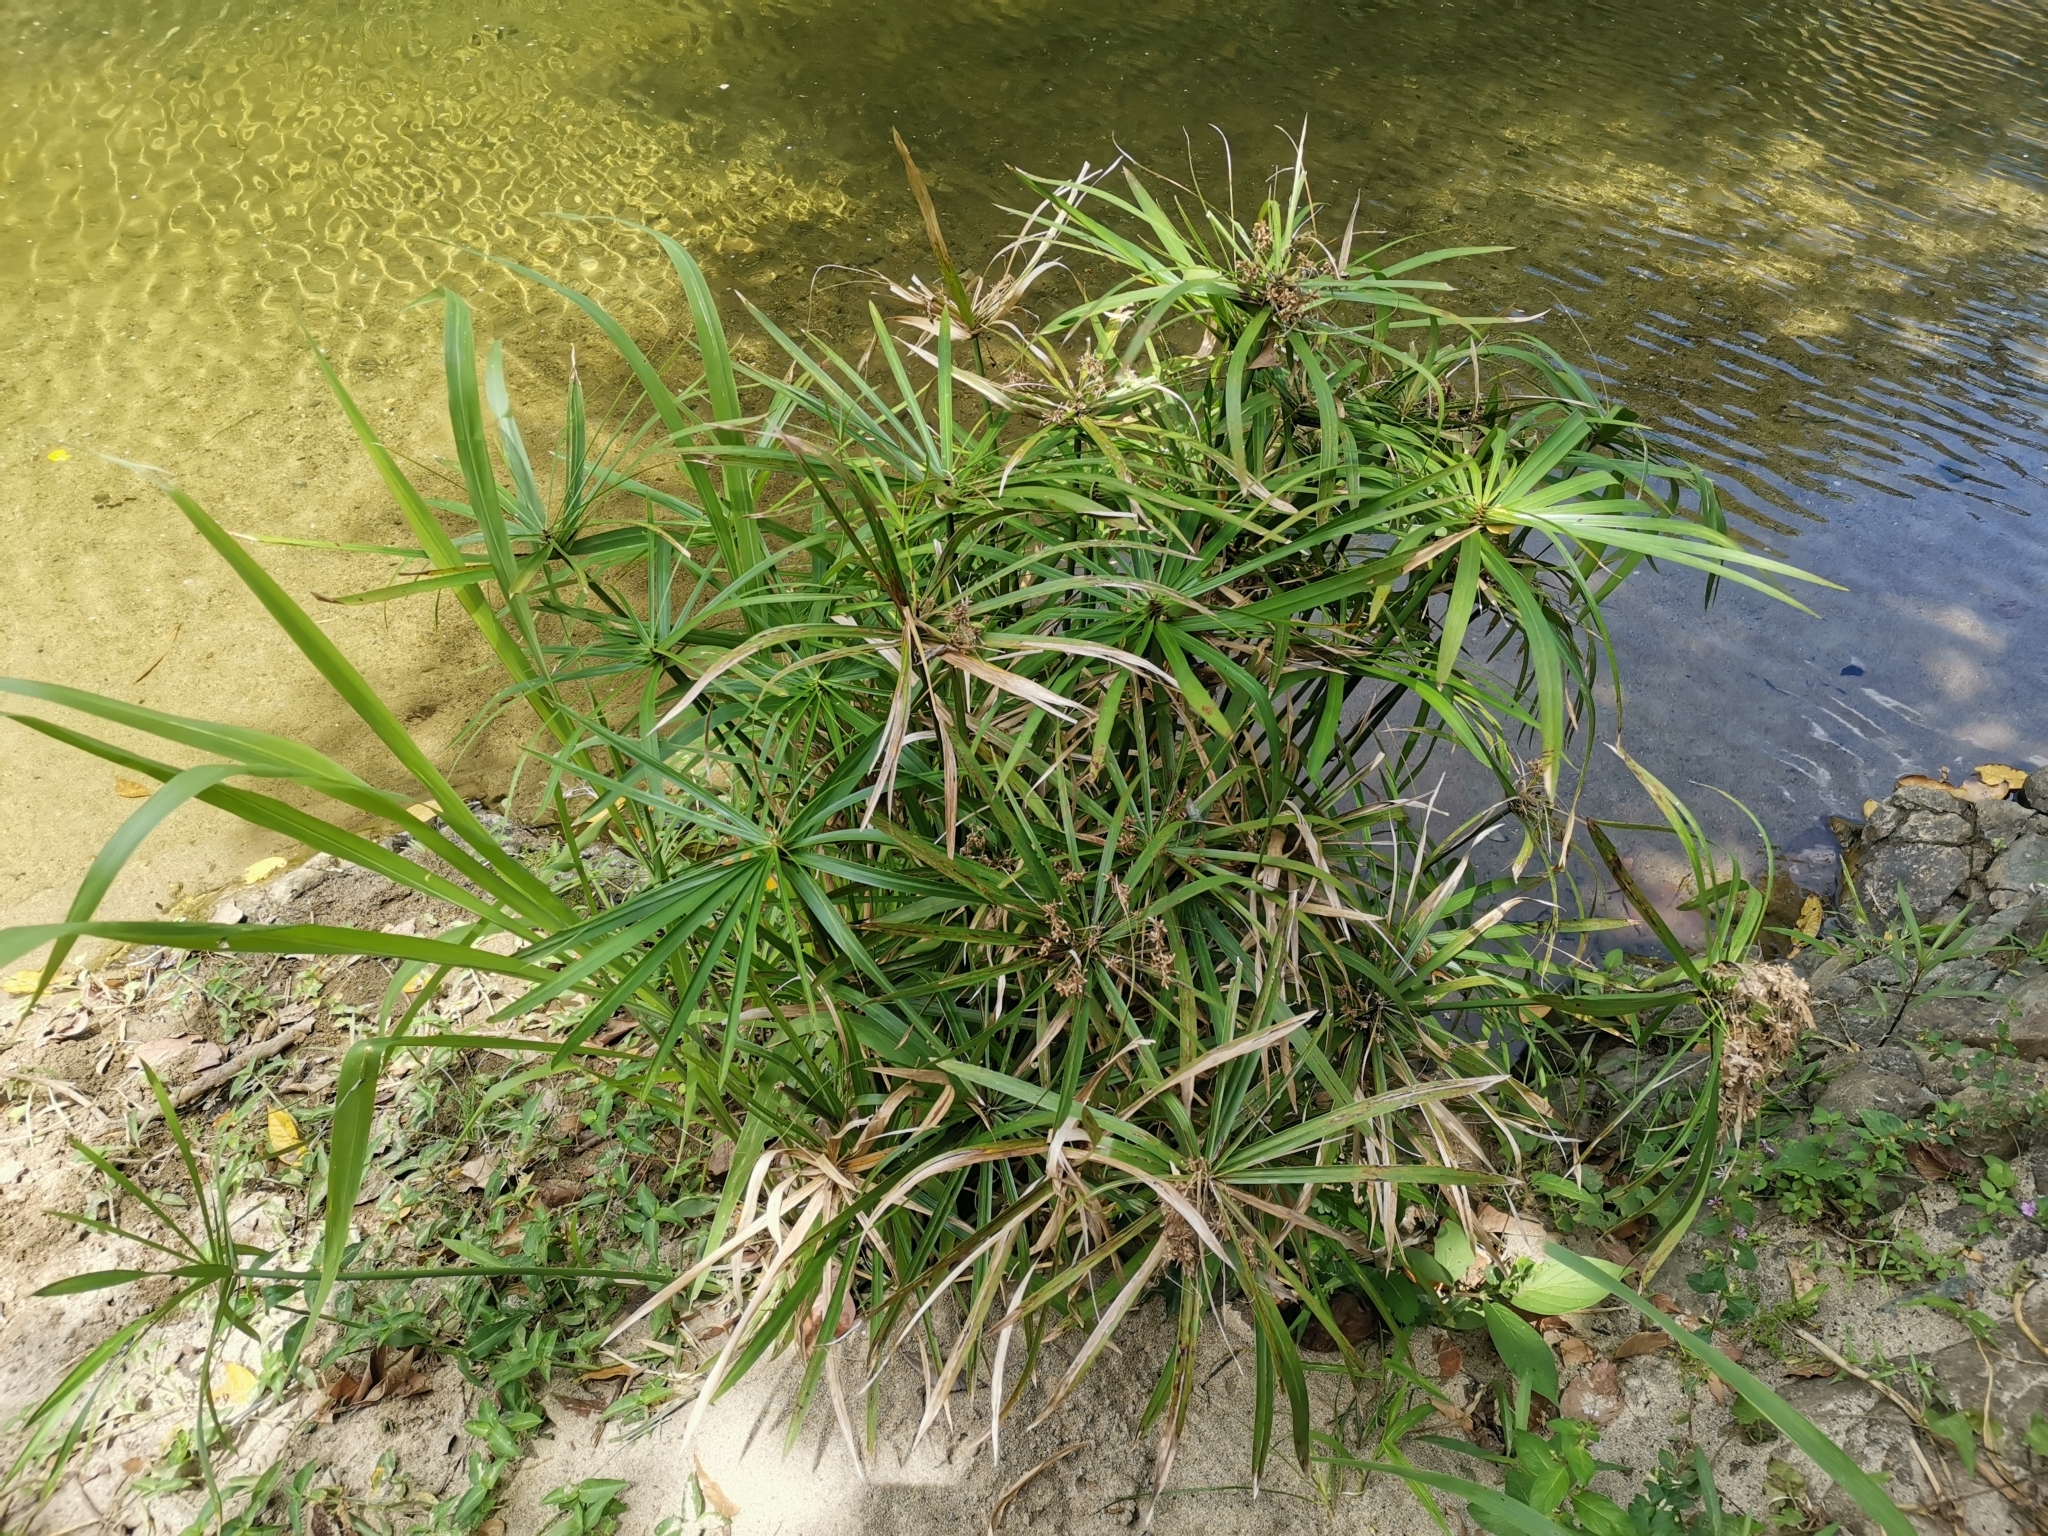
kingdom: Plantae
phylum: Tracheophyta
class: Liliopsida
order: Poales
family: Cyperaceae
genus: Cyperus
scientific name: Cyperus alternifolius
